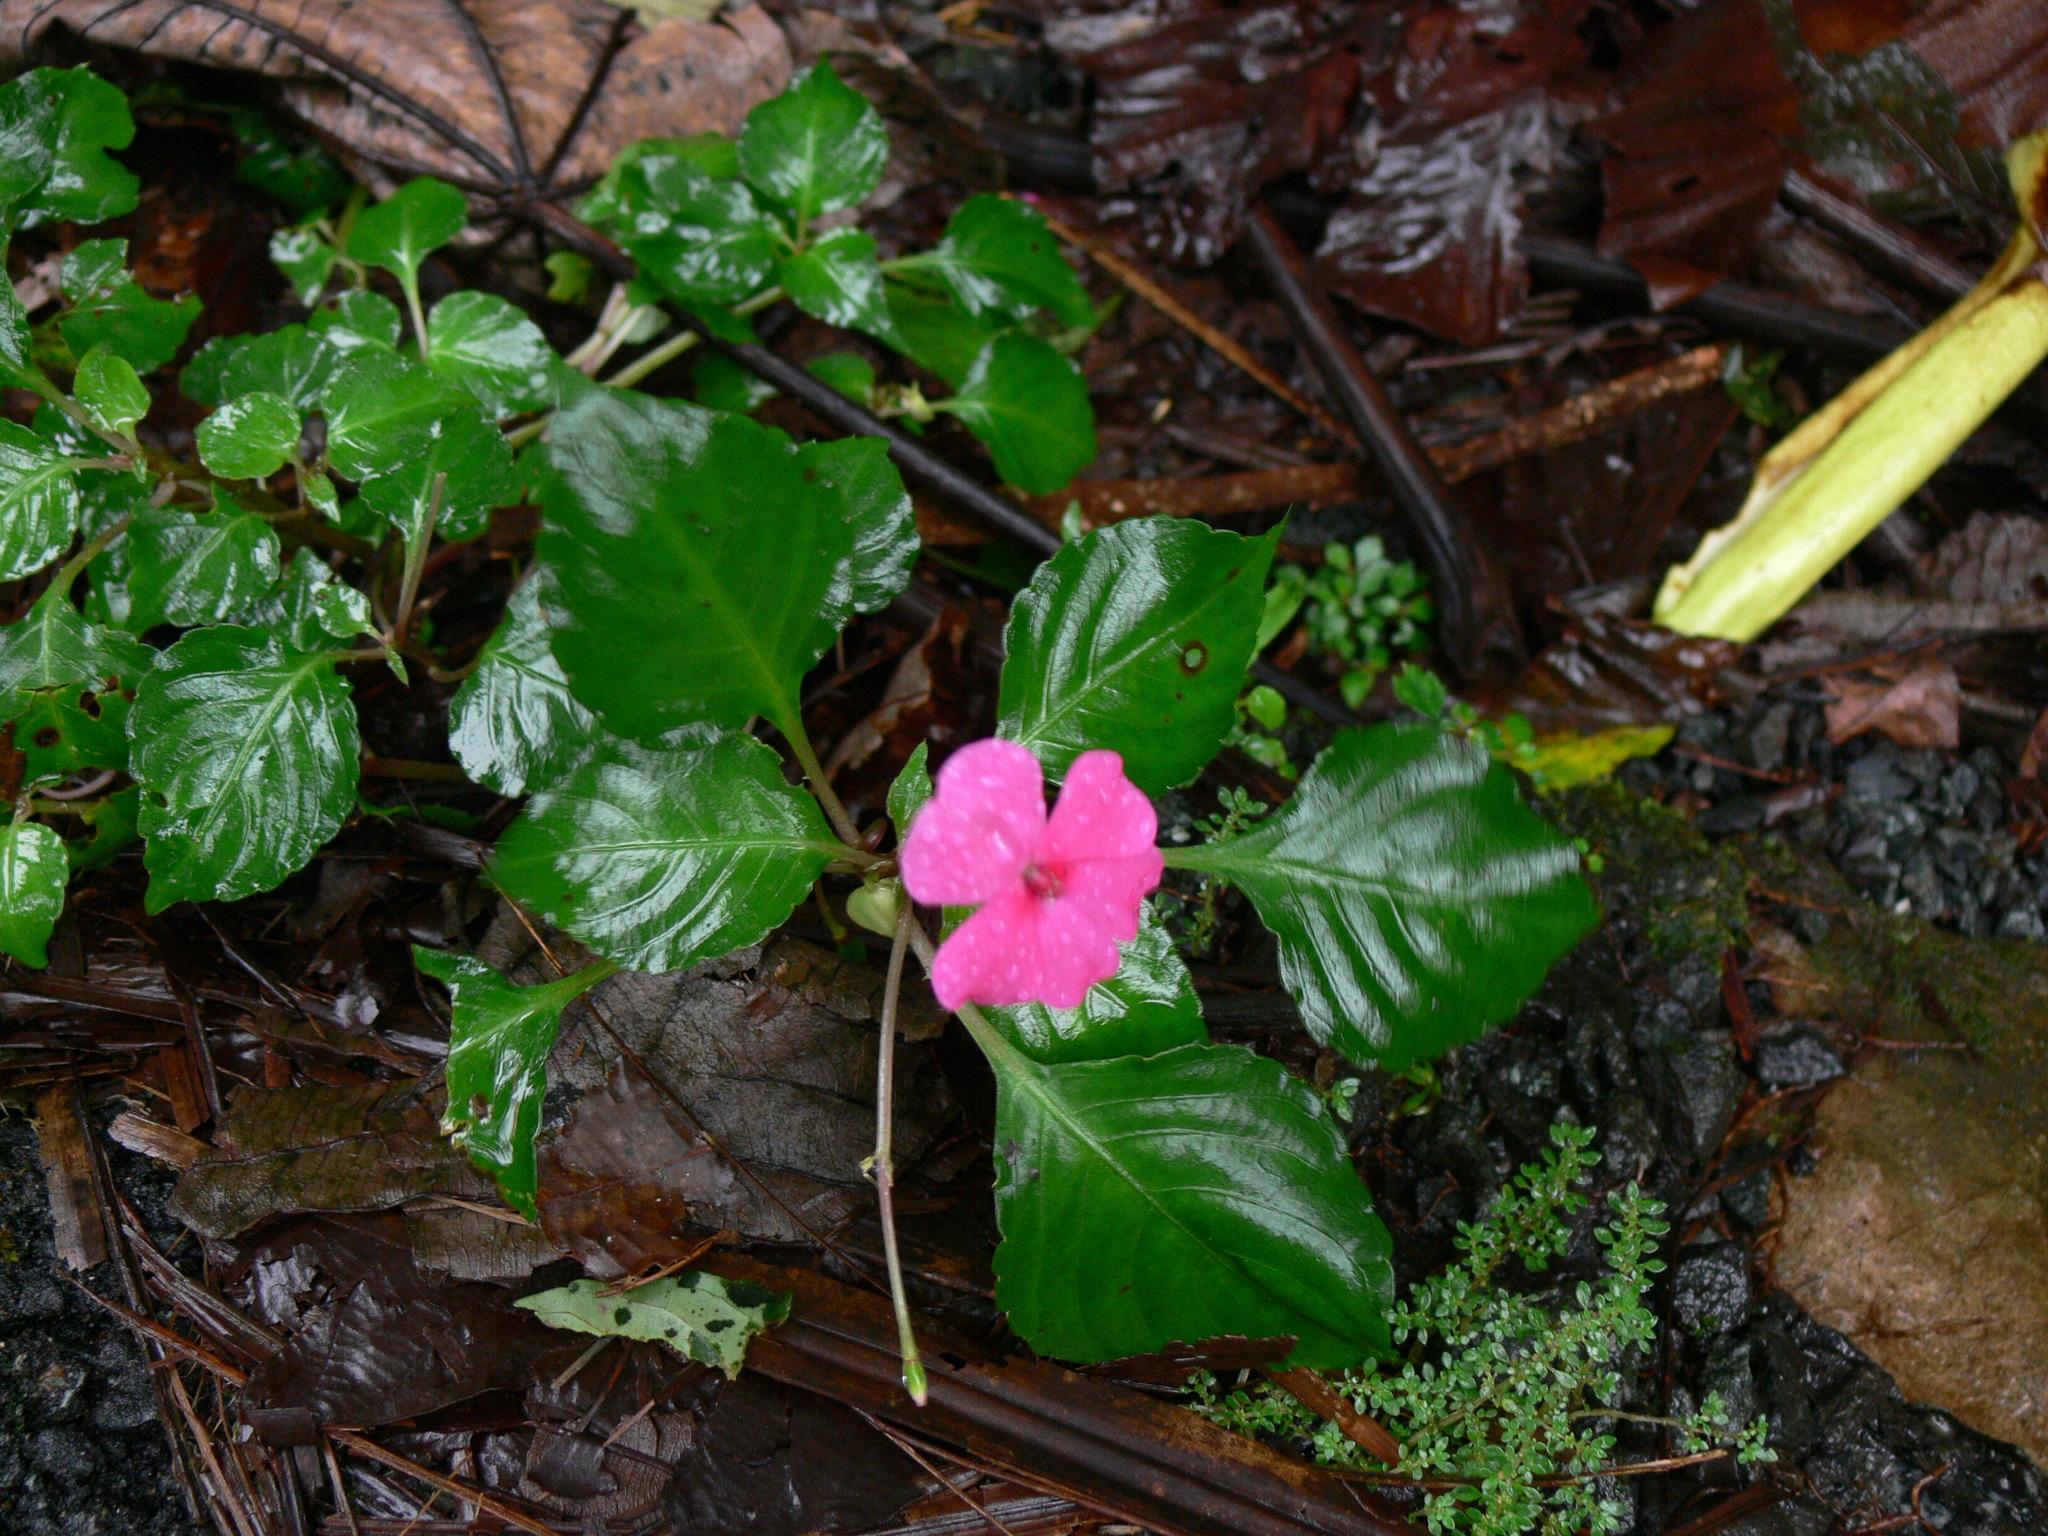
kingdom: Plantae
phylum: Tracheophyta
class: Magnoliopsida
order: Ericales
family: Balsaminaceae
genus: Impatiens
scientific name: Impatiens walleriana
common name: Buzzy lizzy
